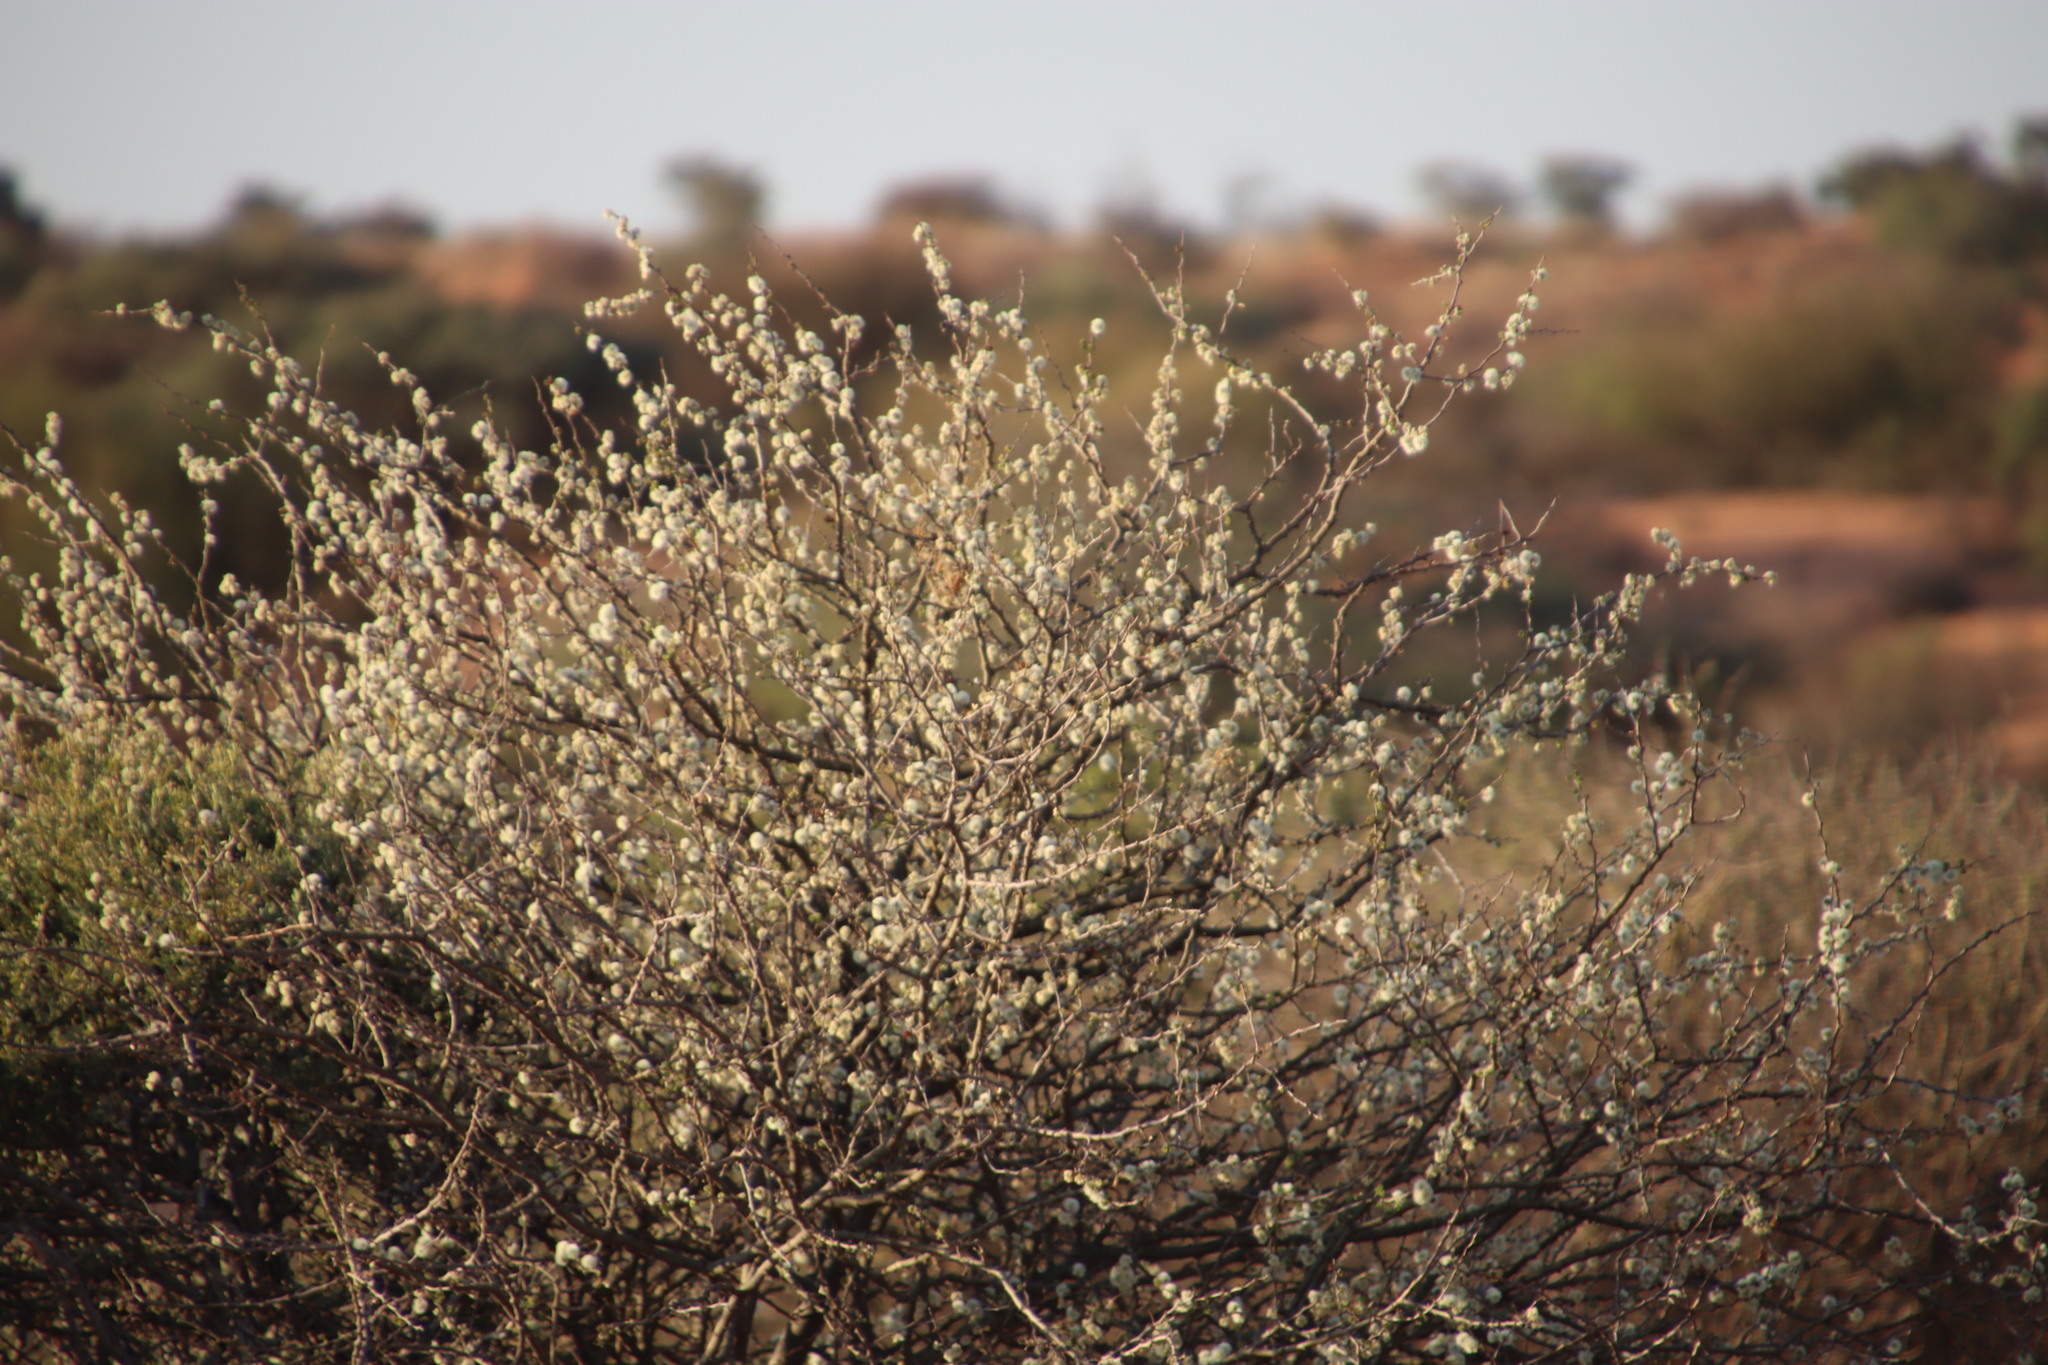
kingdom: Plantae
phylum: Tracheophyta
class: Magnoliopsida
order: Fabales
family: Fabaceae
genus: Senegalia
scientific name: Senegalia mellifera
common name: Hookthorn
